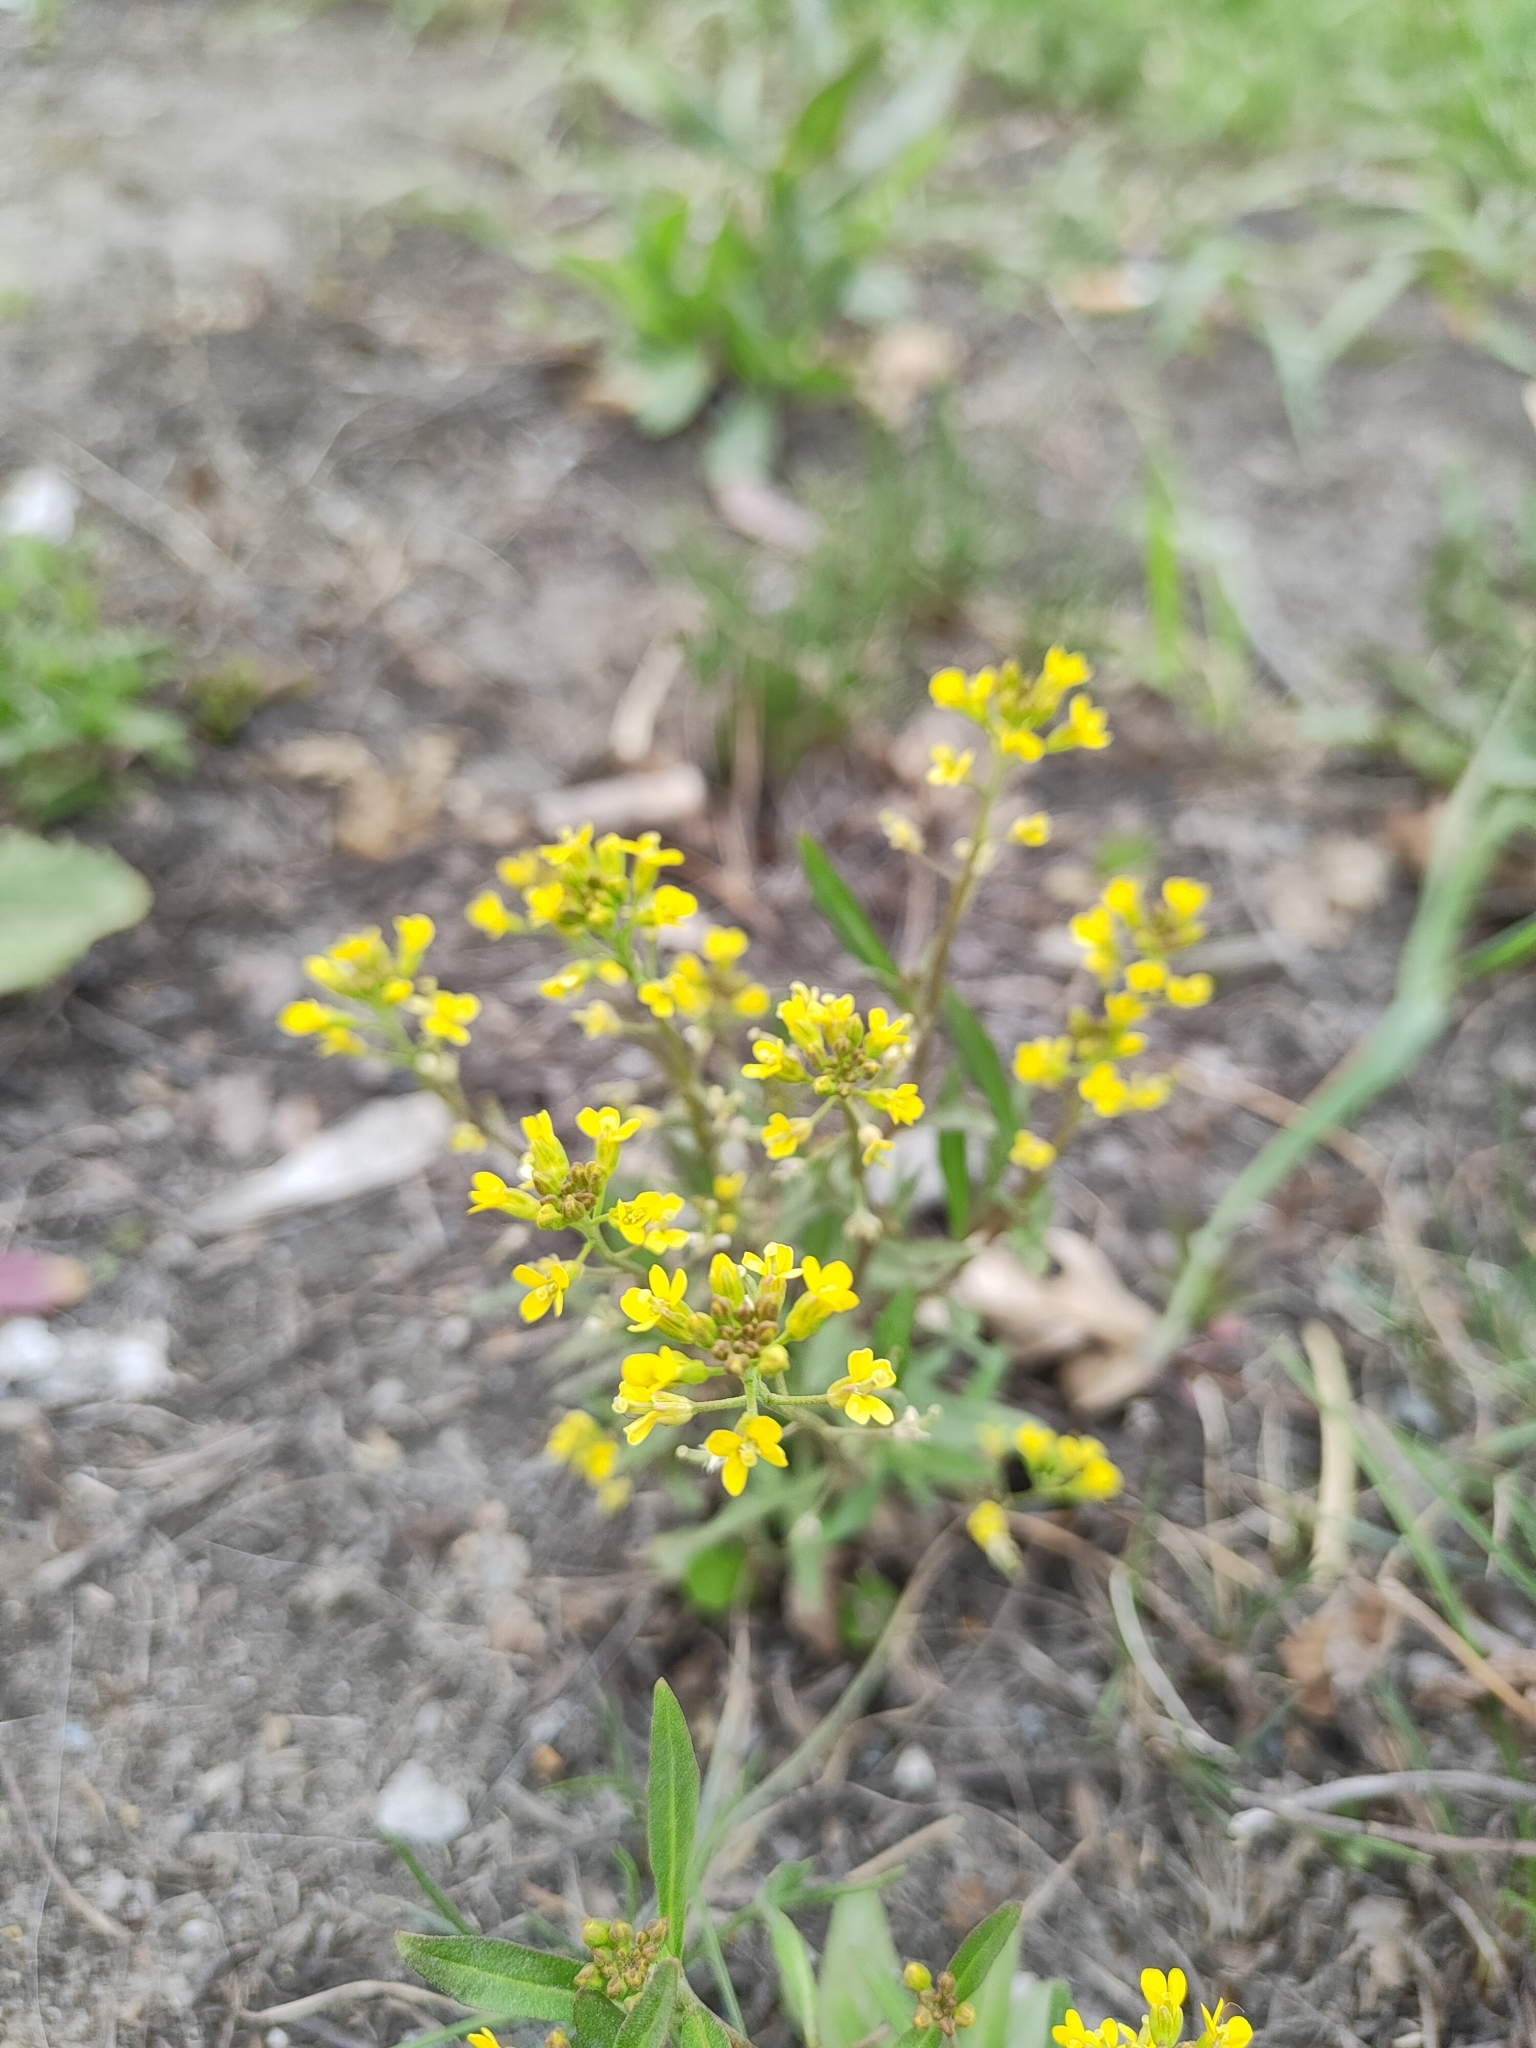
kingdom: Plantae
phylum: Tracheophyta
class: Magnoliopsida
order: Brassicales
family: Brassicaceae
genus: Erysimum
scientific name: Erysimum cheiranthoides
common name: Treacle mustard
